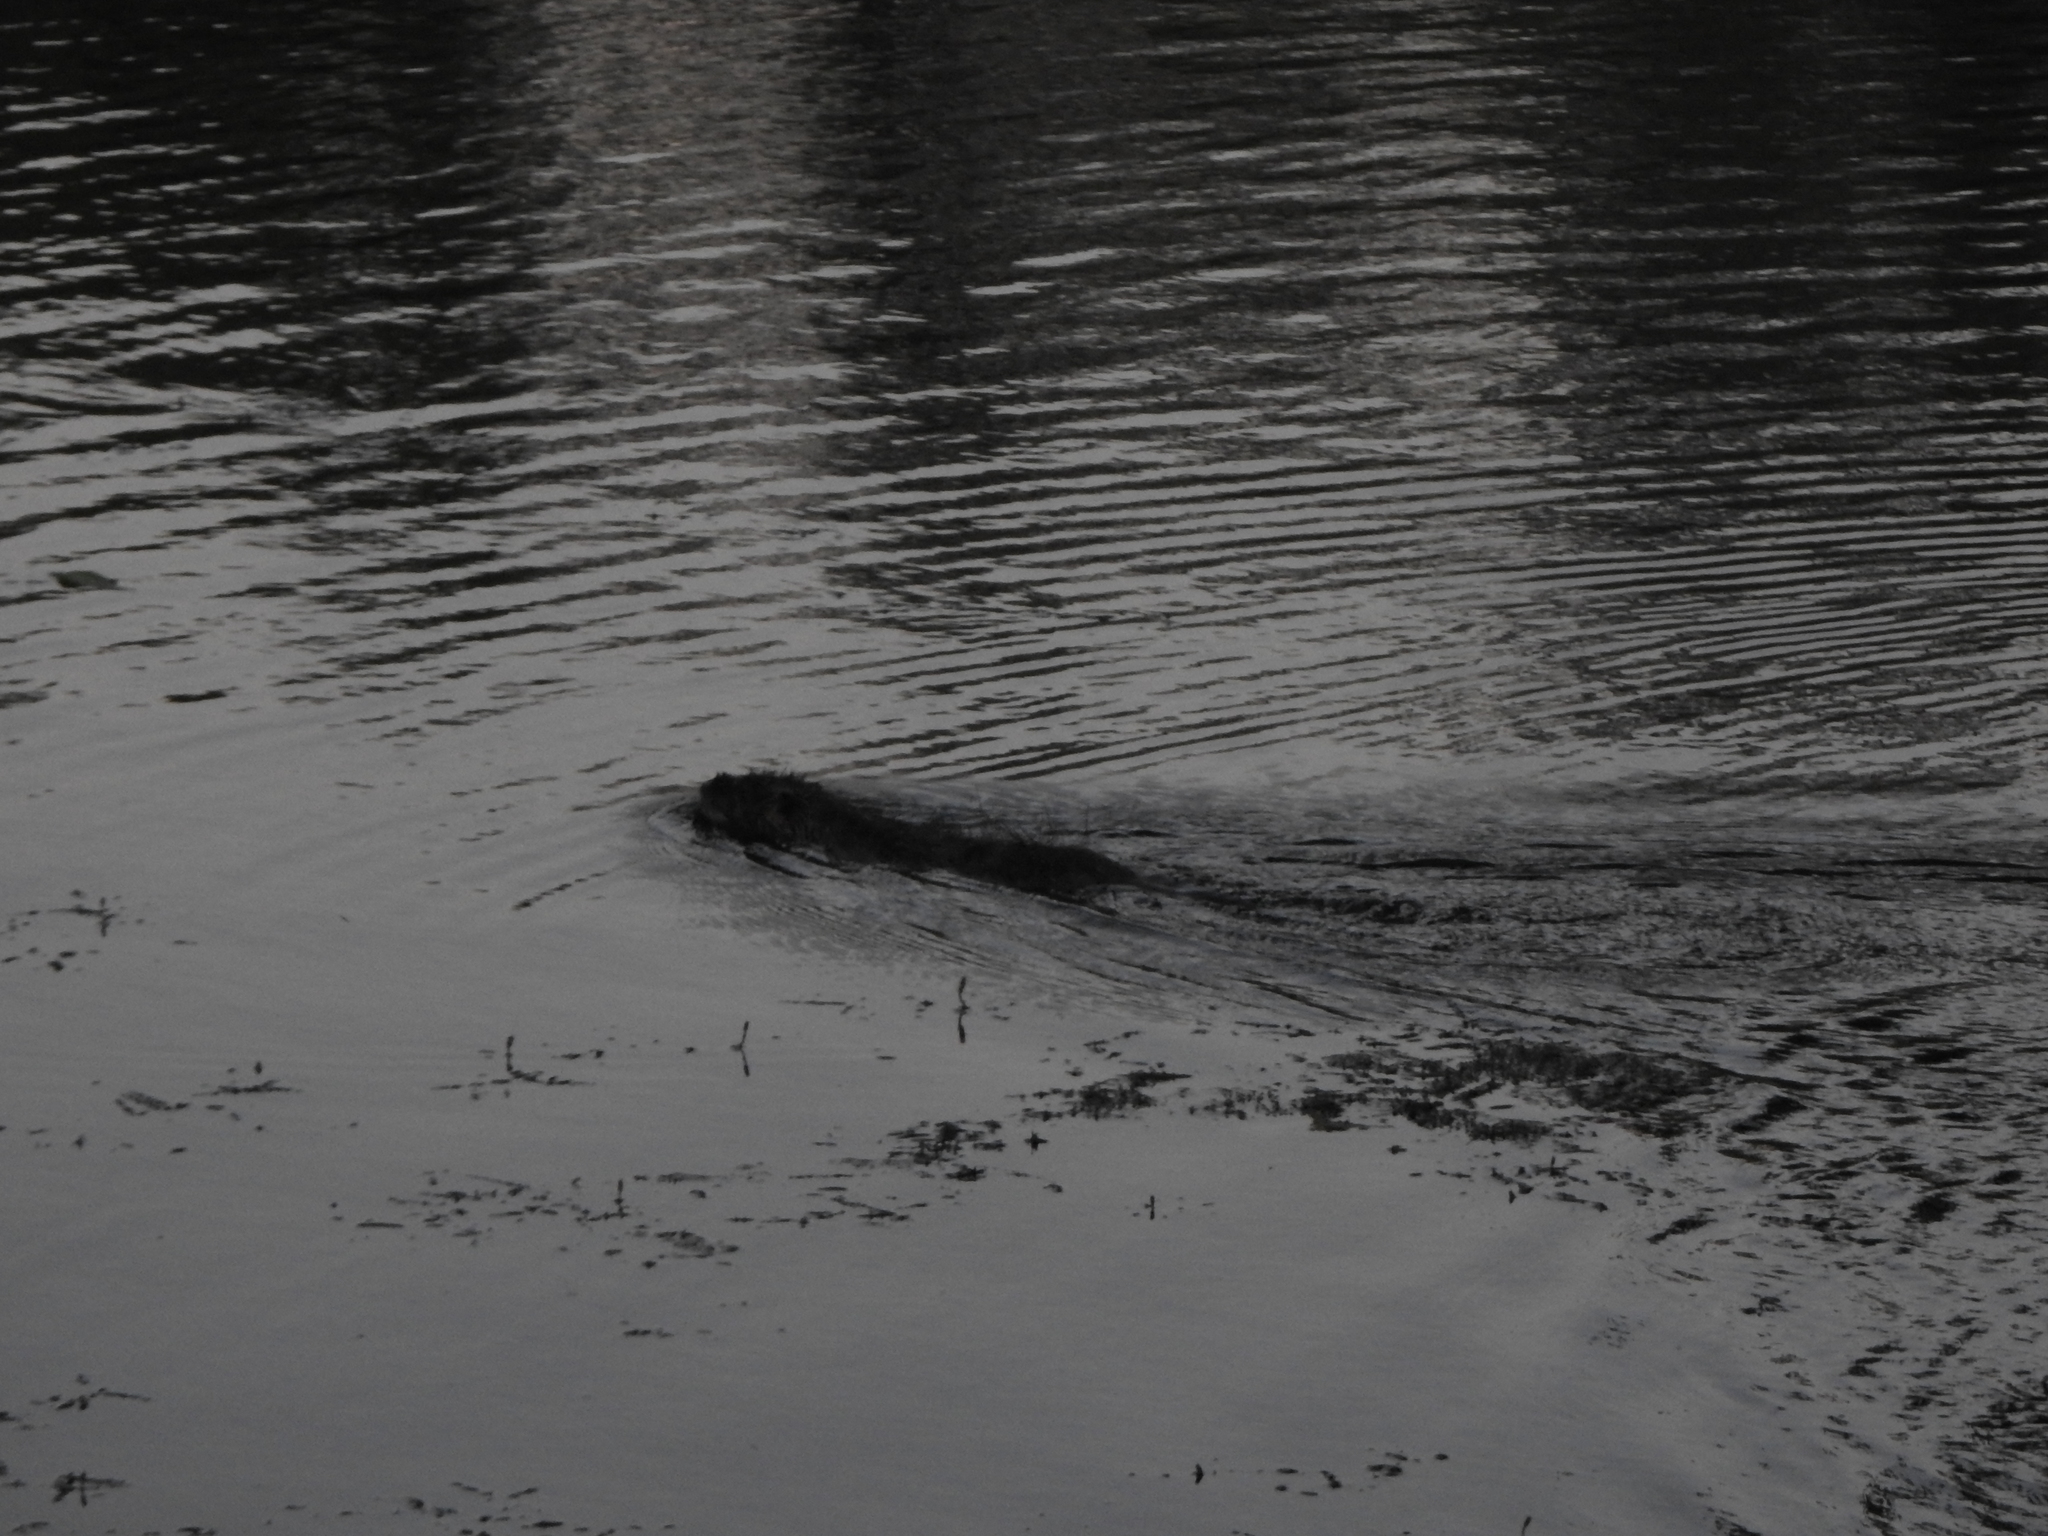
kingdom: Animalia
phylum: Chordata
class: Mammalia
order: Rodentia
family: Myocastoridae
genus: Myocastor
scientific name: Myocastor coypus
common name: Coypu
